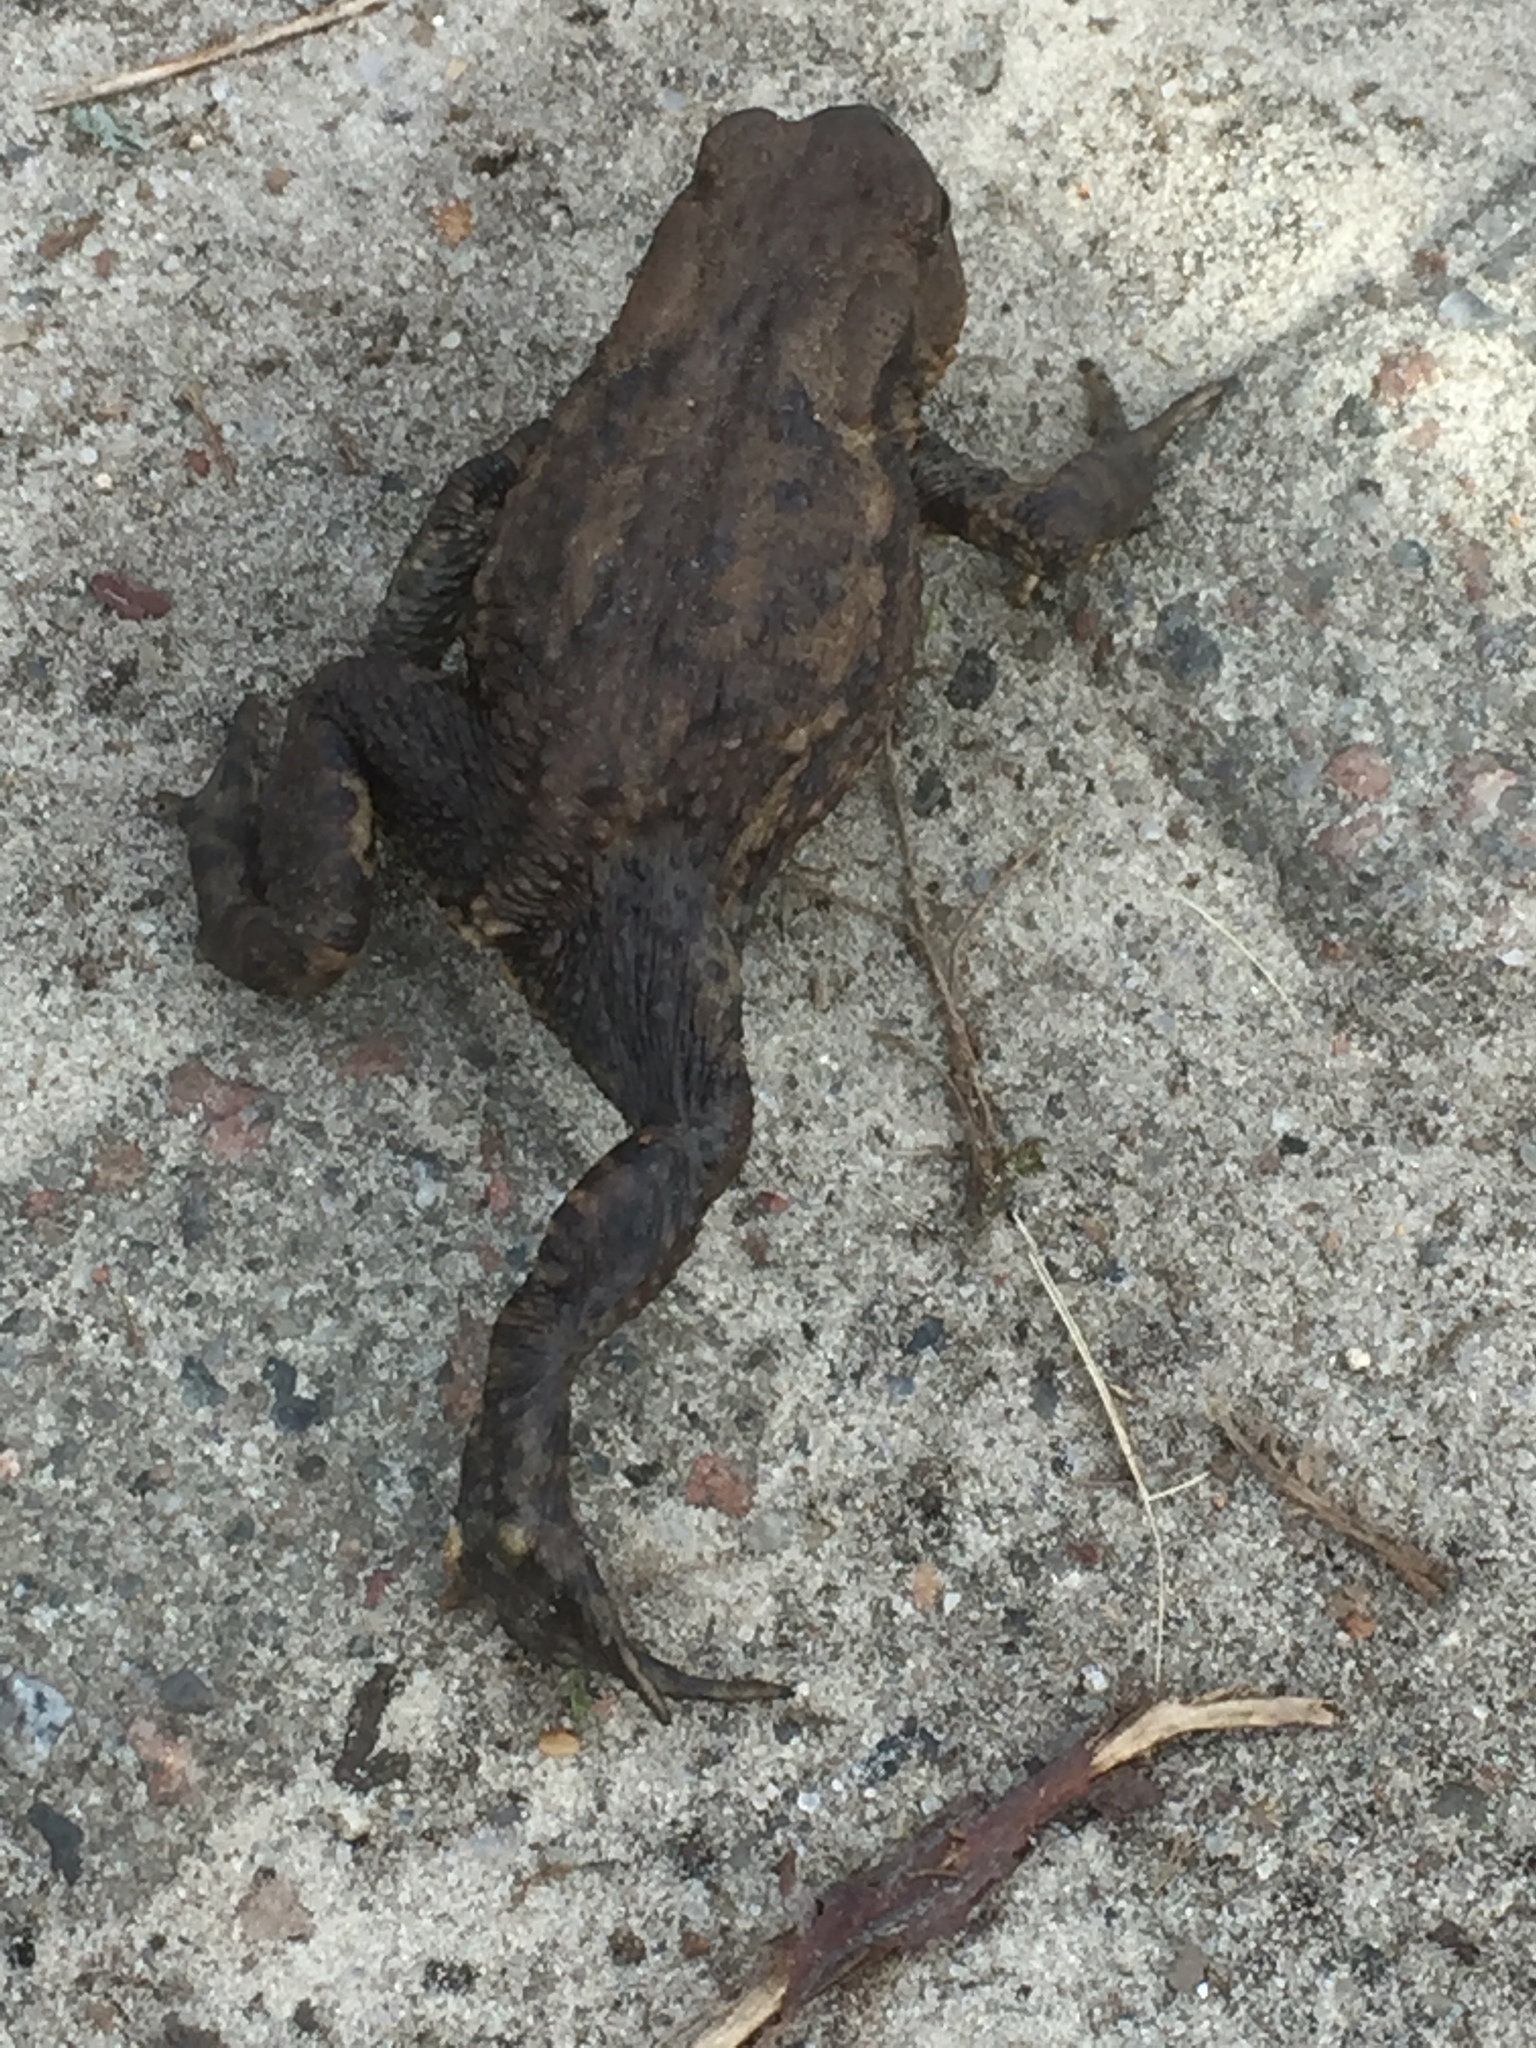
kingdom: Animalia
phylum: Chordata
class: Amphibia
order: Anura
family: Bufonidae
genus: Bufo
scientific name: Bufo bufo
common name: Common toad
